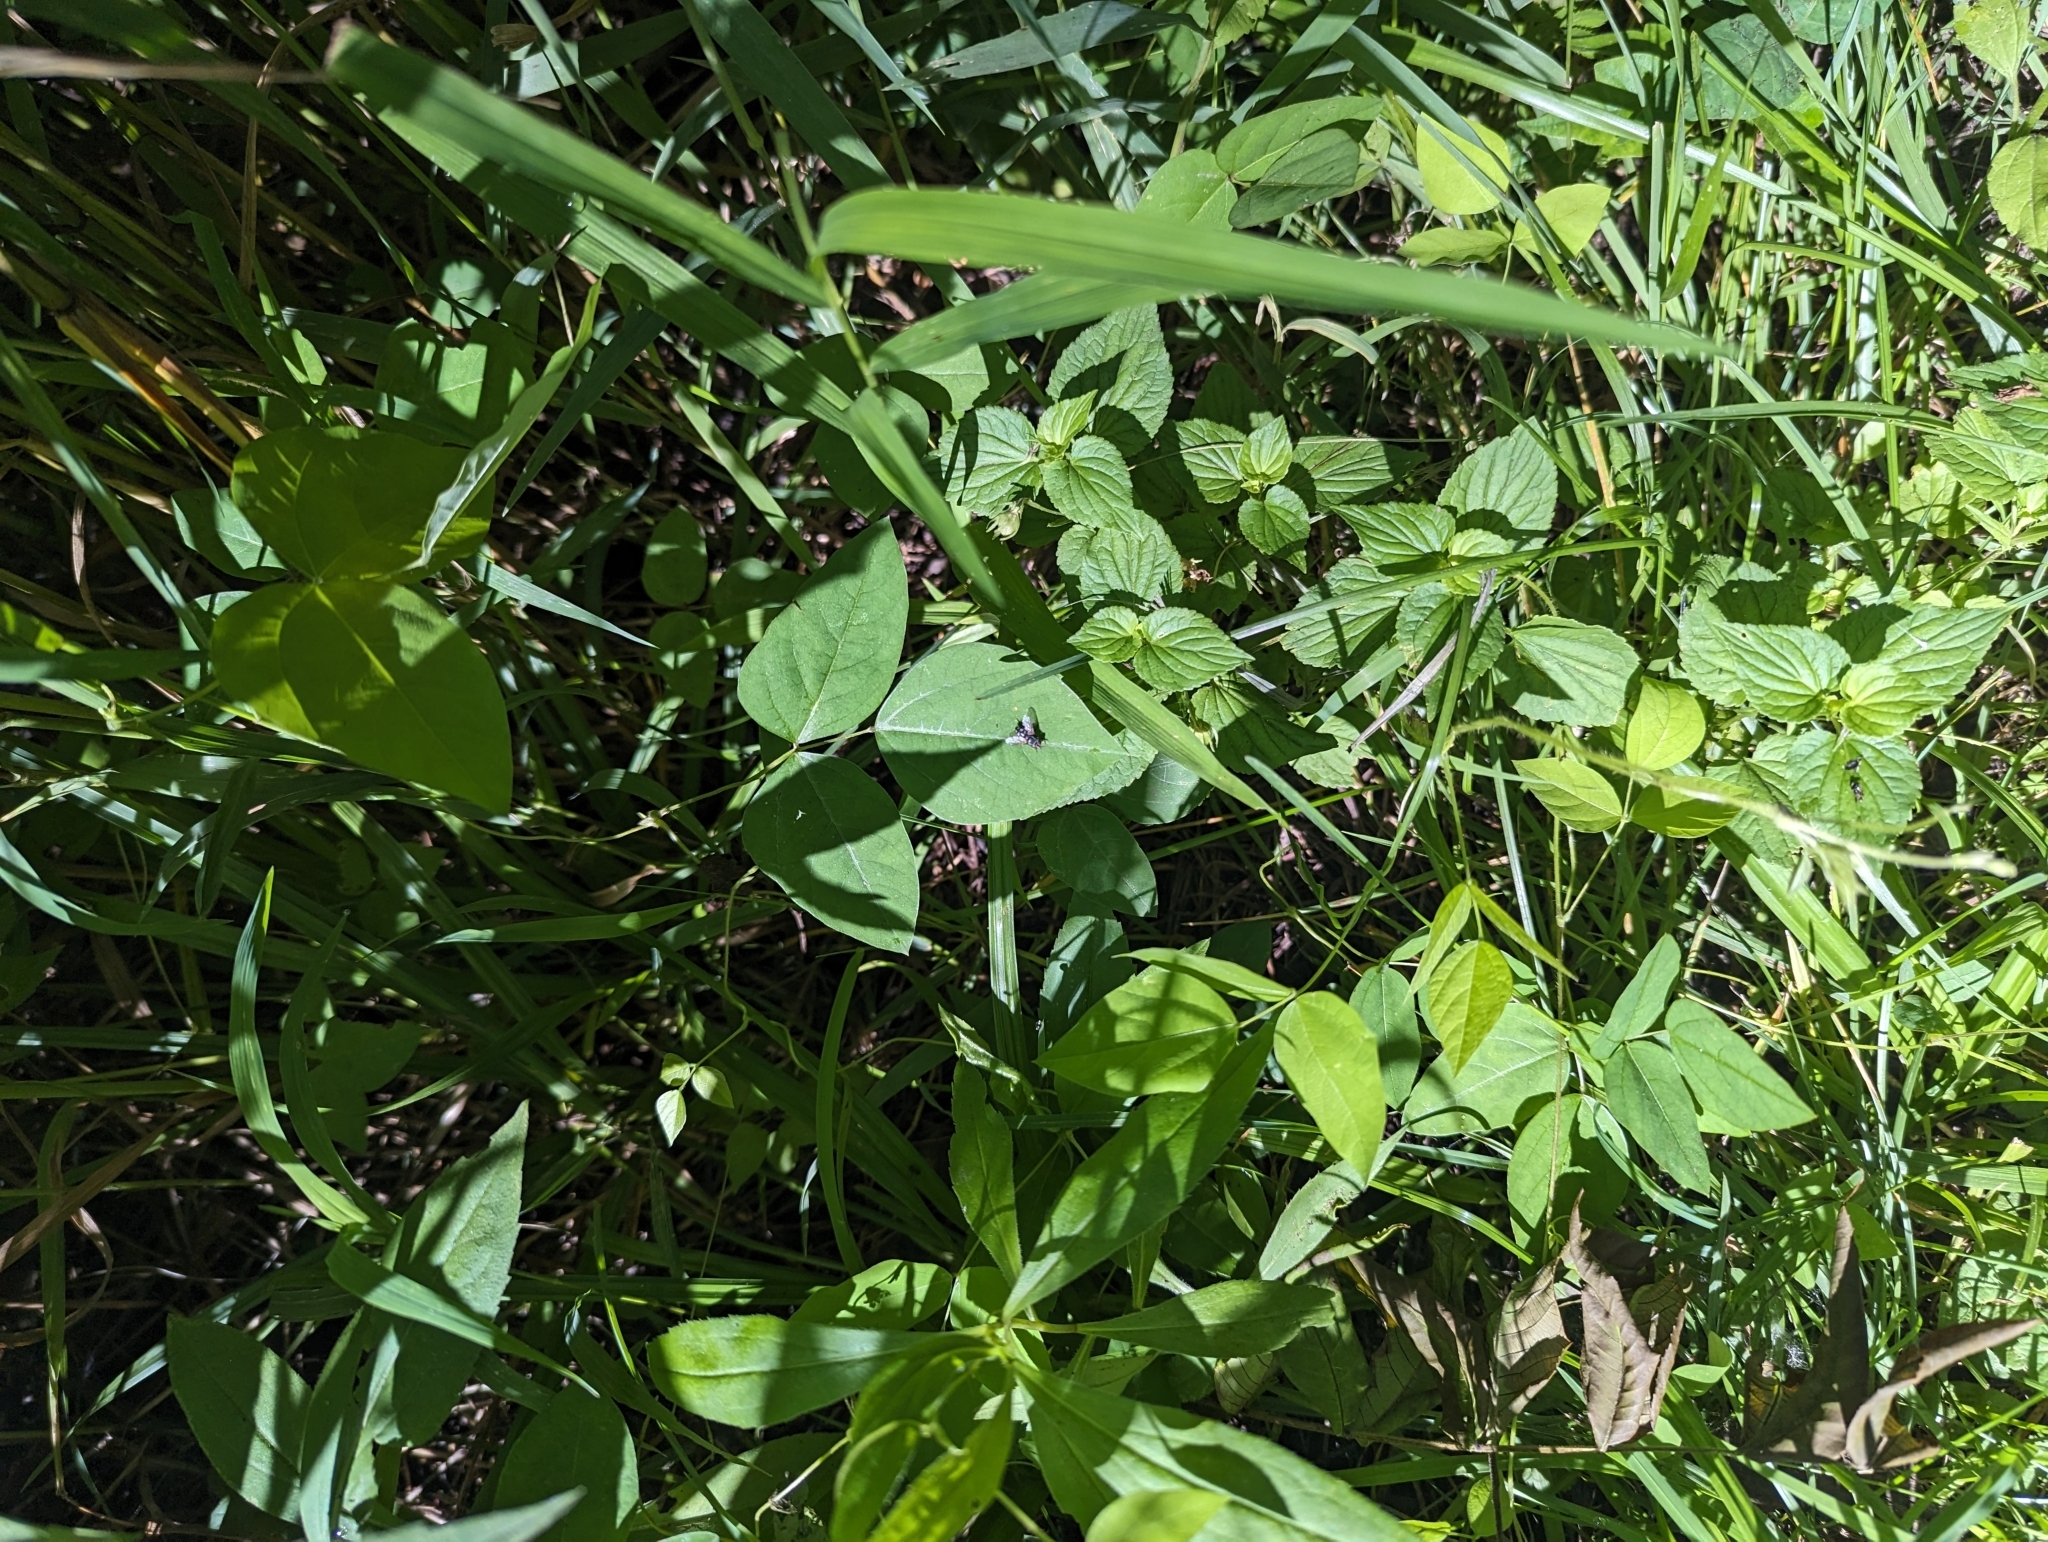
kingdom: Plantae
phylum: Tracheophyta
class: Magnoliopsida
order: Fabales
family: Fabaceae
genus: Amphicarpaea
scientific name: Amphicarpaea bracteata
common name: American hog peanut
